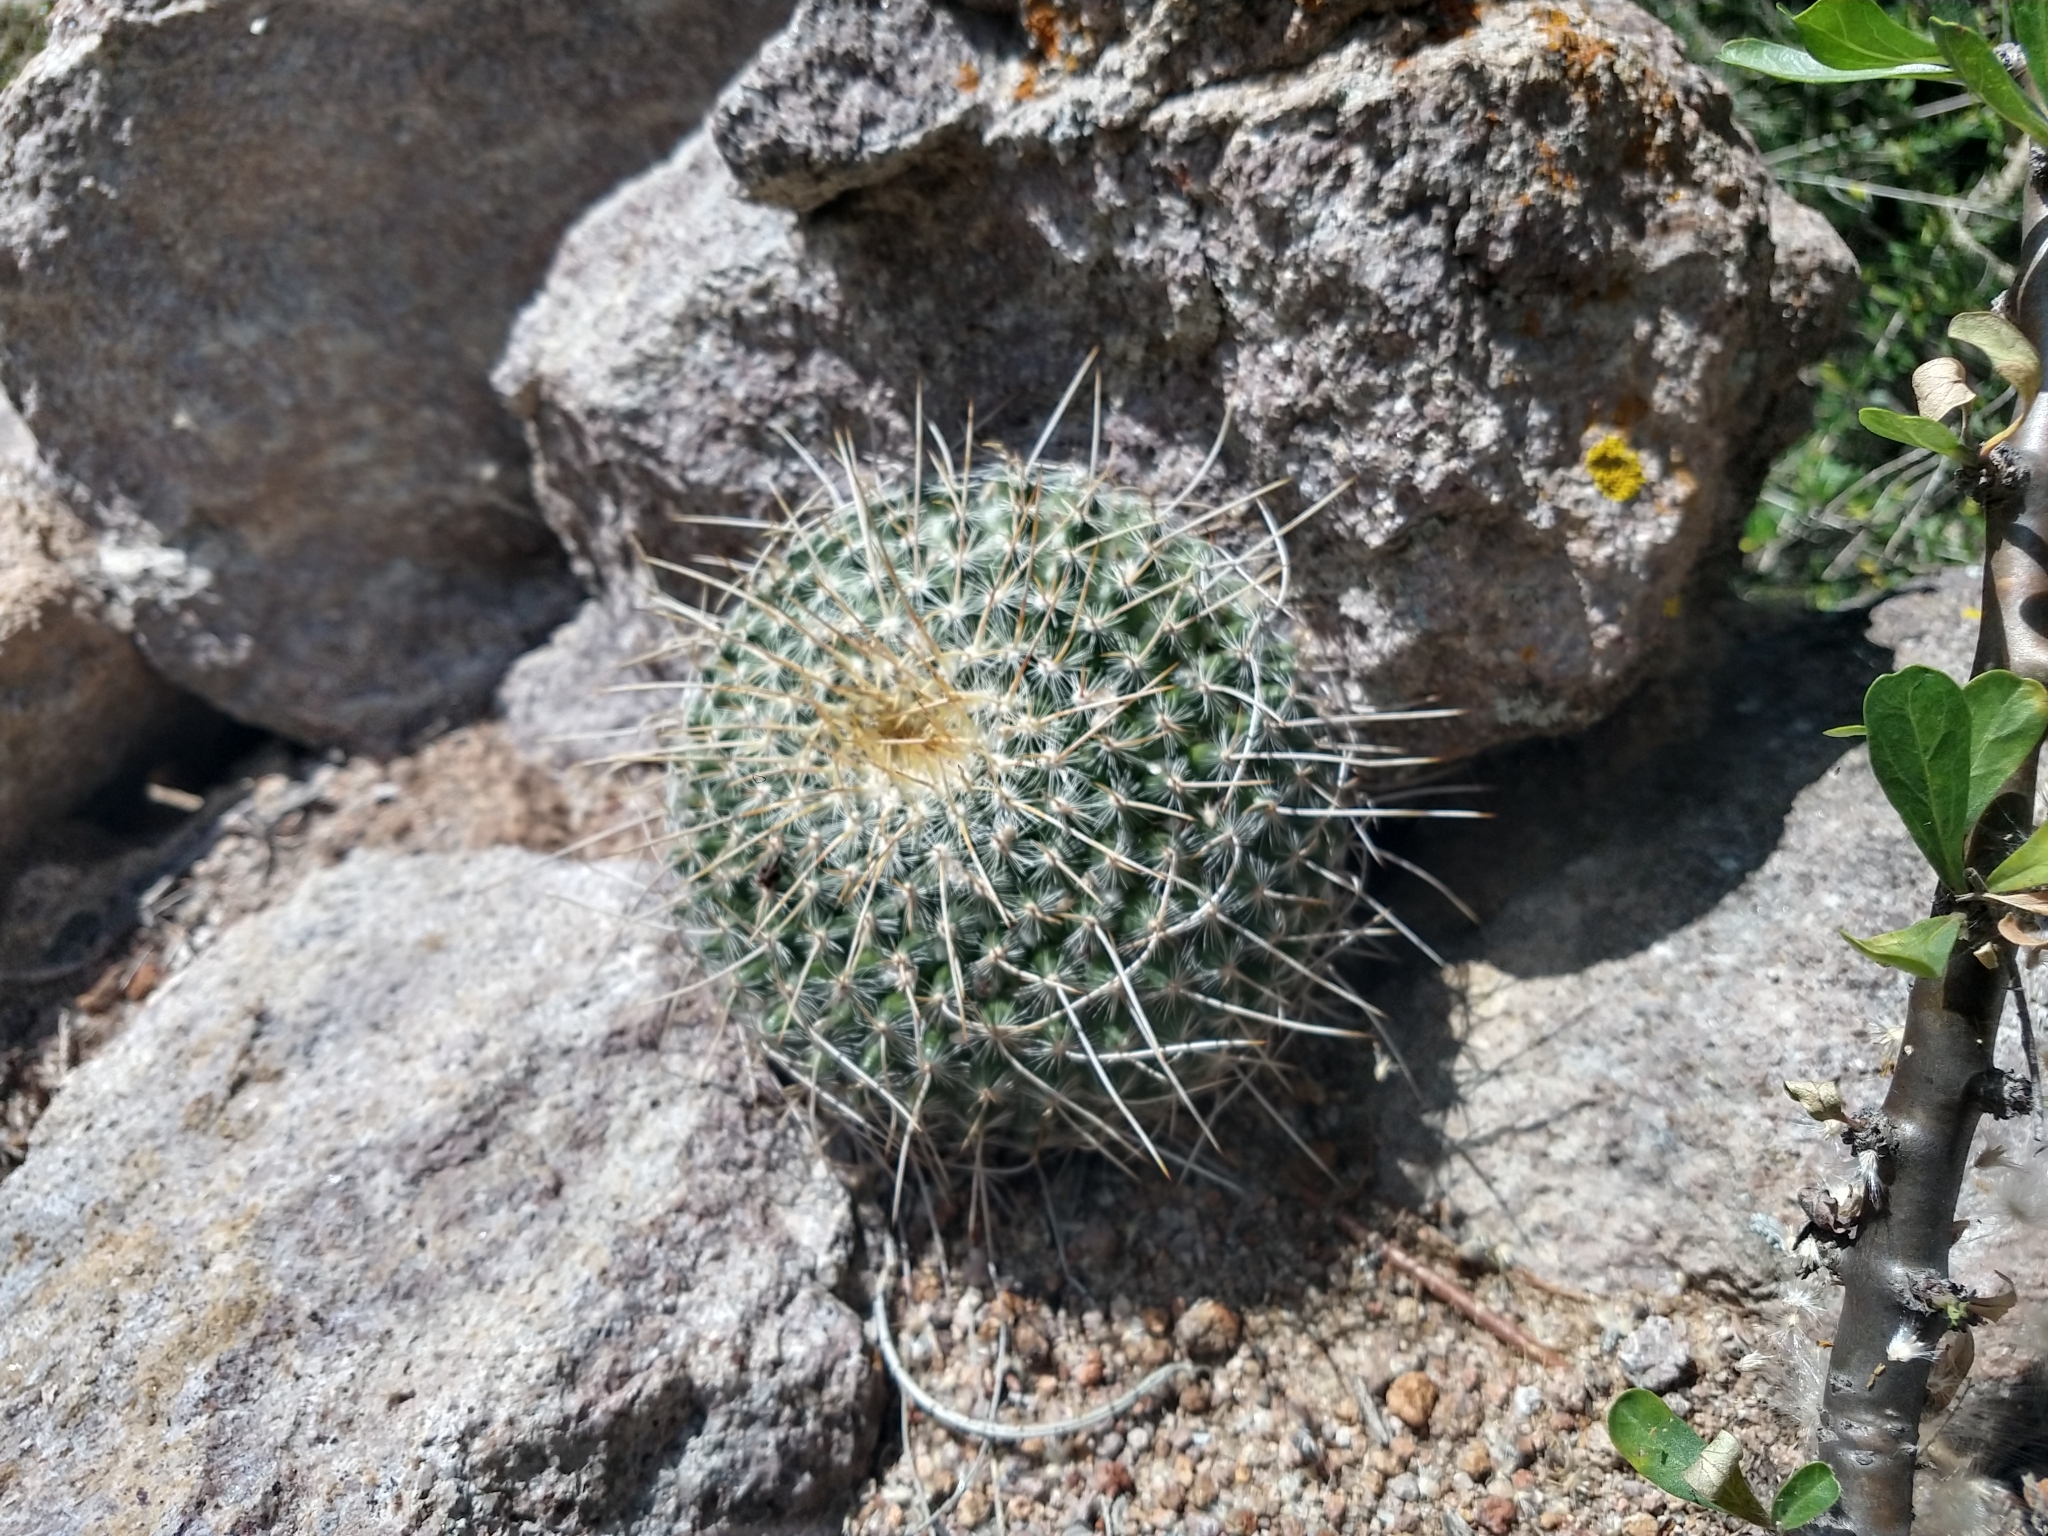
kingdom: Plantae
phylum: Tracheophyta
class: Magnoliopsida
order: Caryophyllales
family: Cactaceae
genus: Mammillaria
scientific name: Mammillaria muehlenpfordtii
